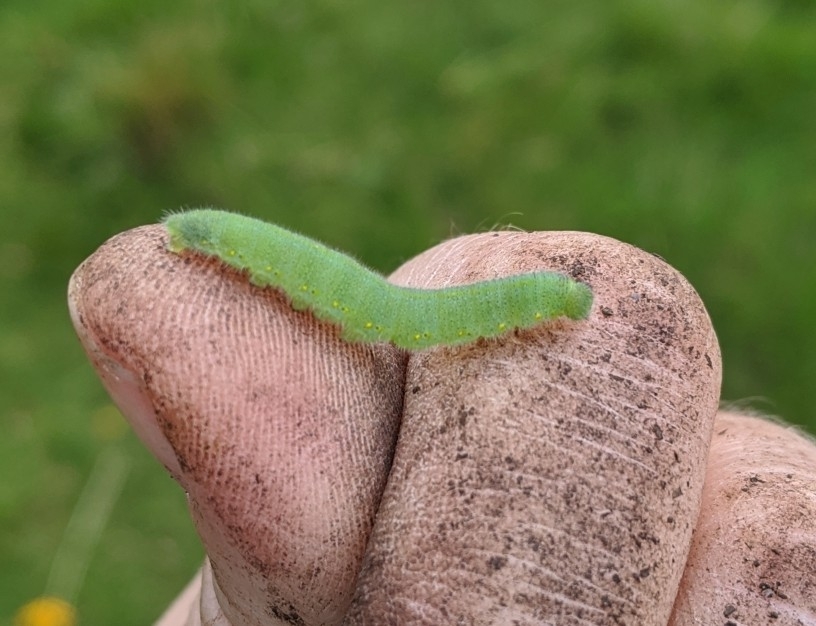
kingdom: Animalia
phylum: Arthropoda
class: Insecta
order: Lepidoptera
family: Pieridae
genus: Pieris
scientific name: Pieris rapae
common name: Small white
